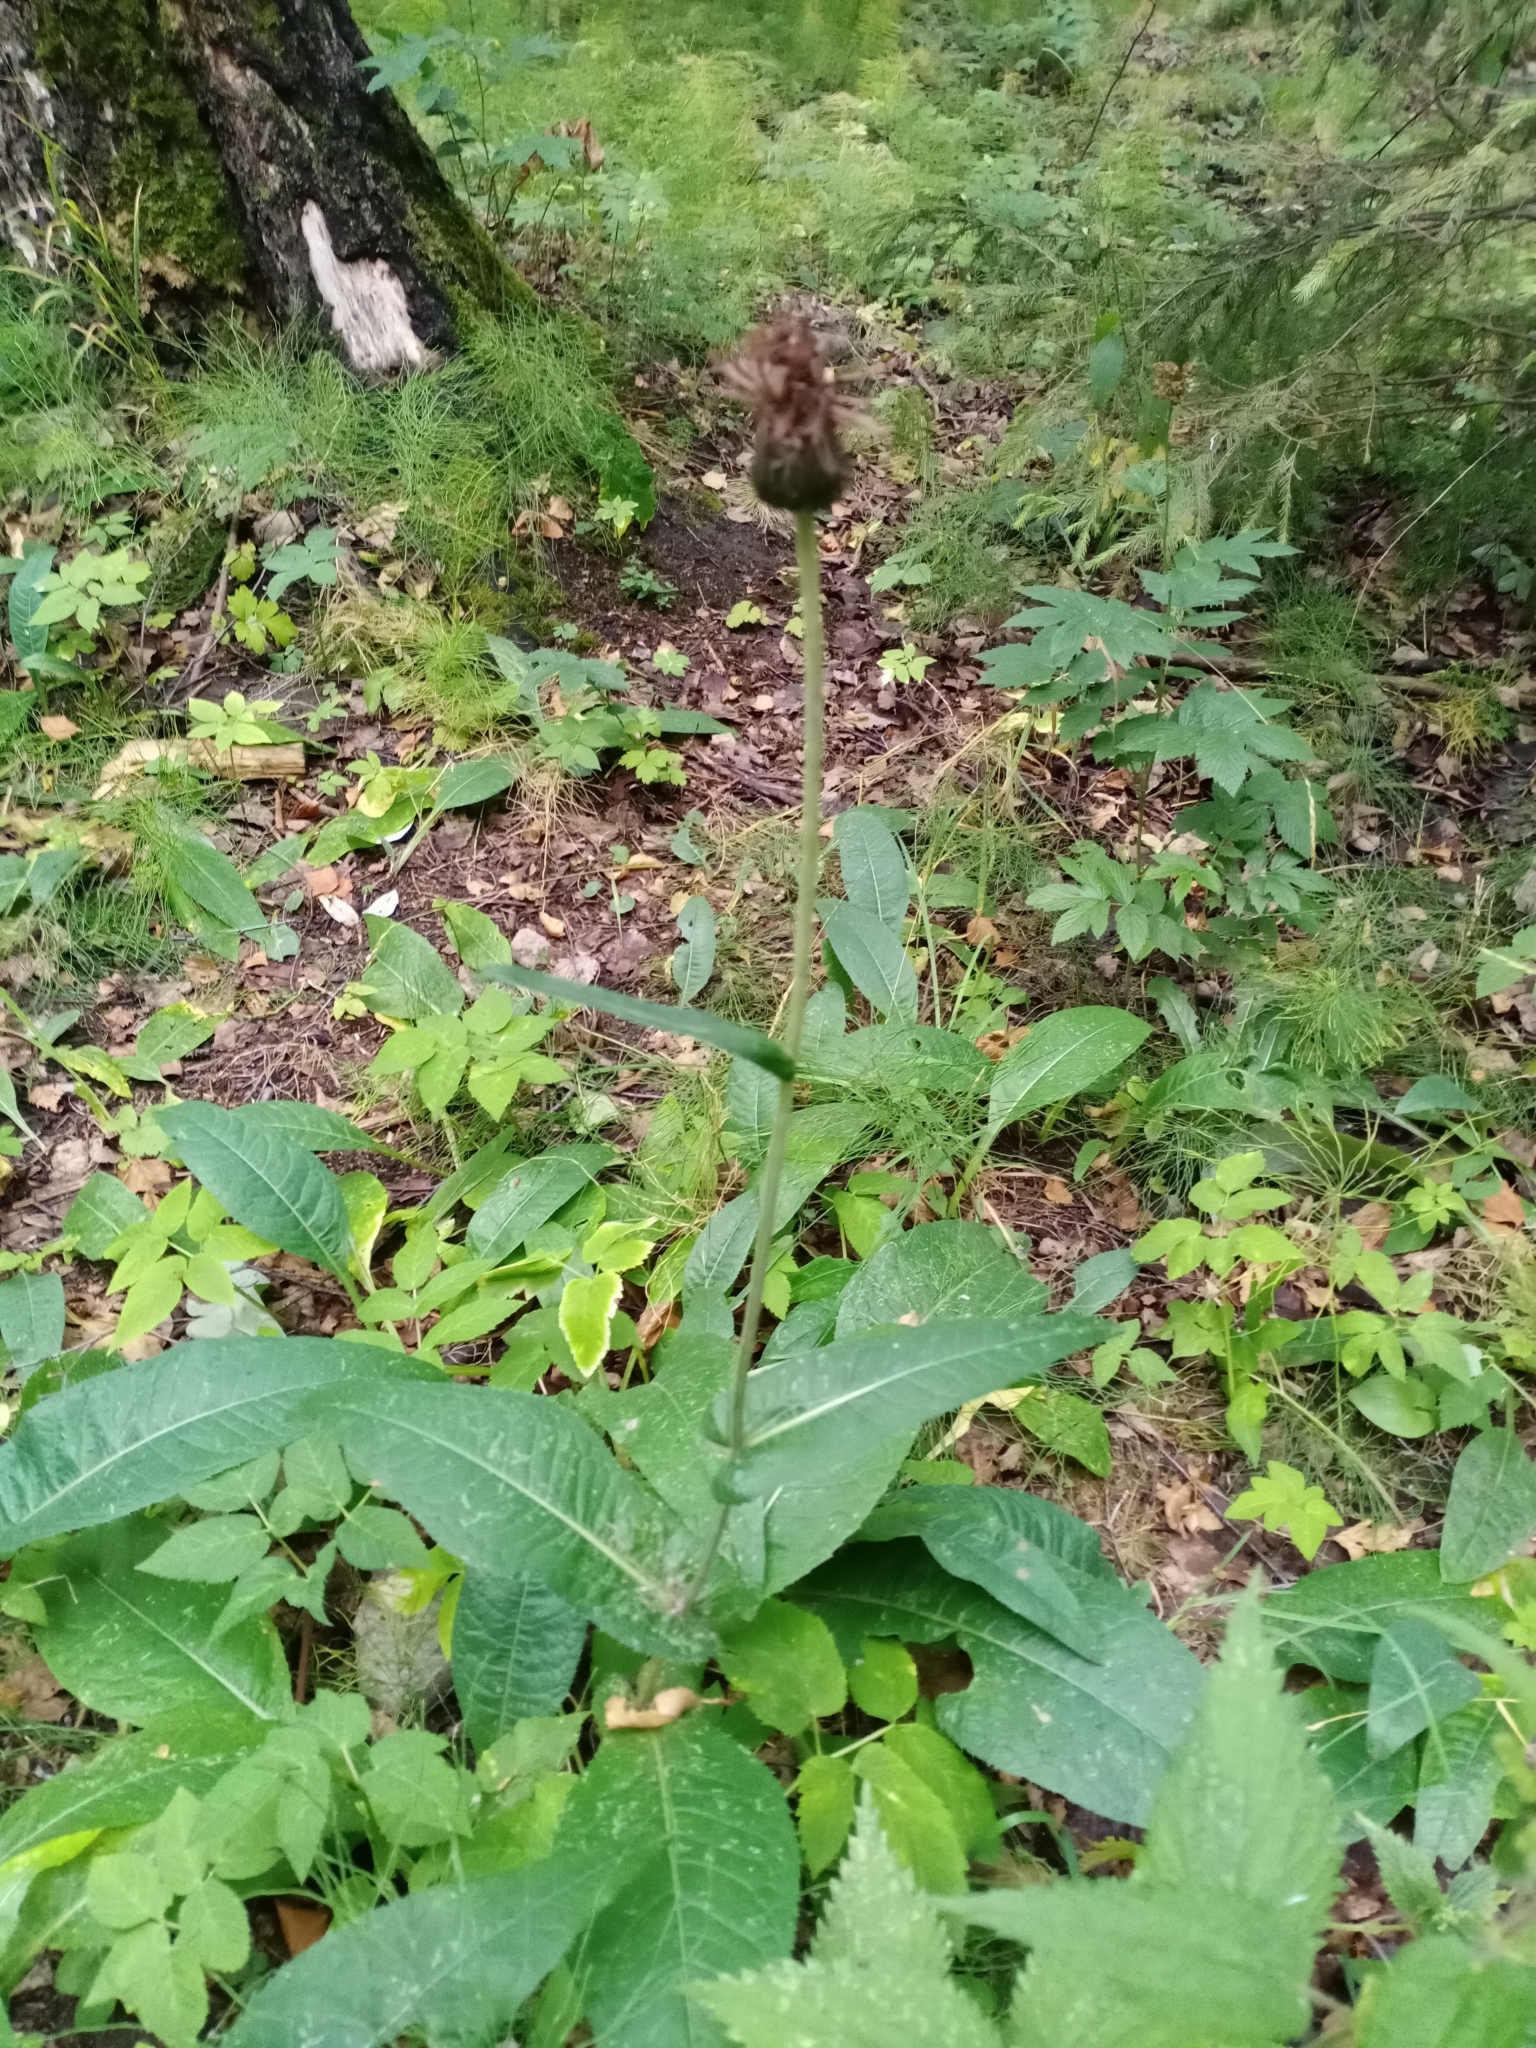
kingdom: Plantae
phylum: Tracheophyta
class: Magnoliopsida
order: Asterales
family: Asteraceae
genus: Cirsium
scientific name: Cirsium heterophyllum
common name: Melancholy thistle
